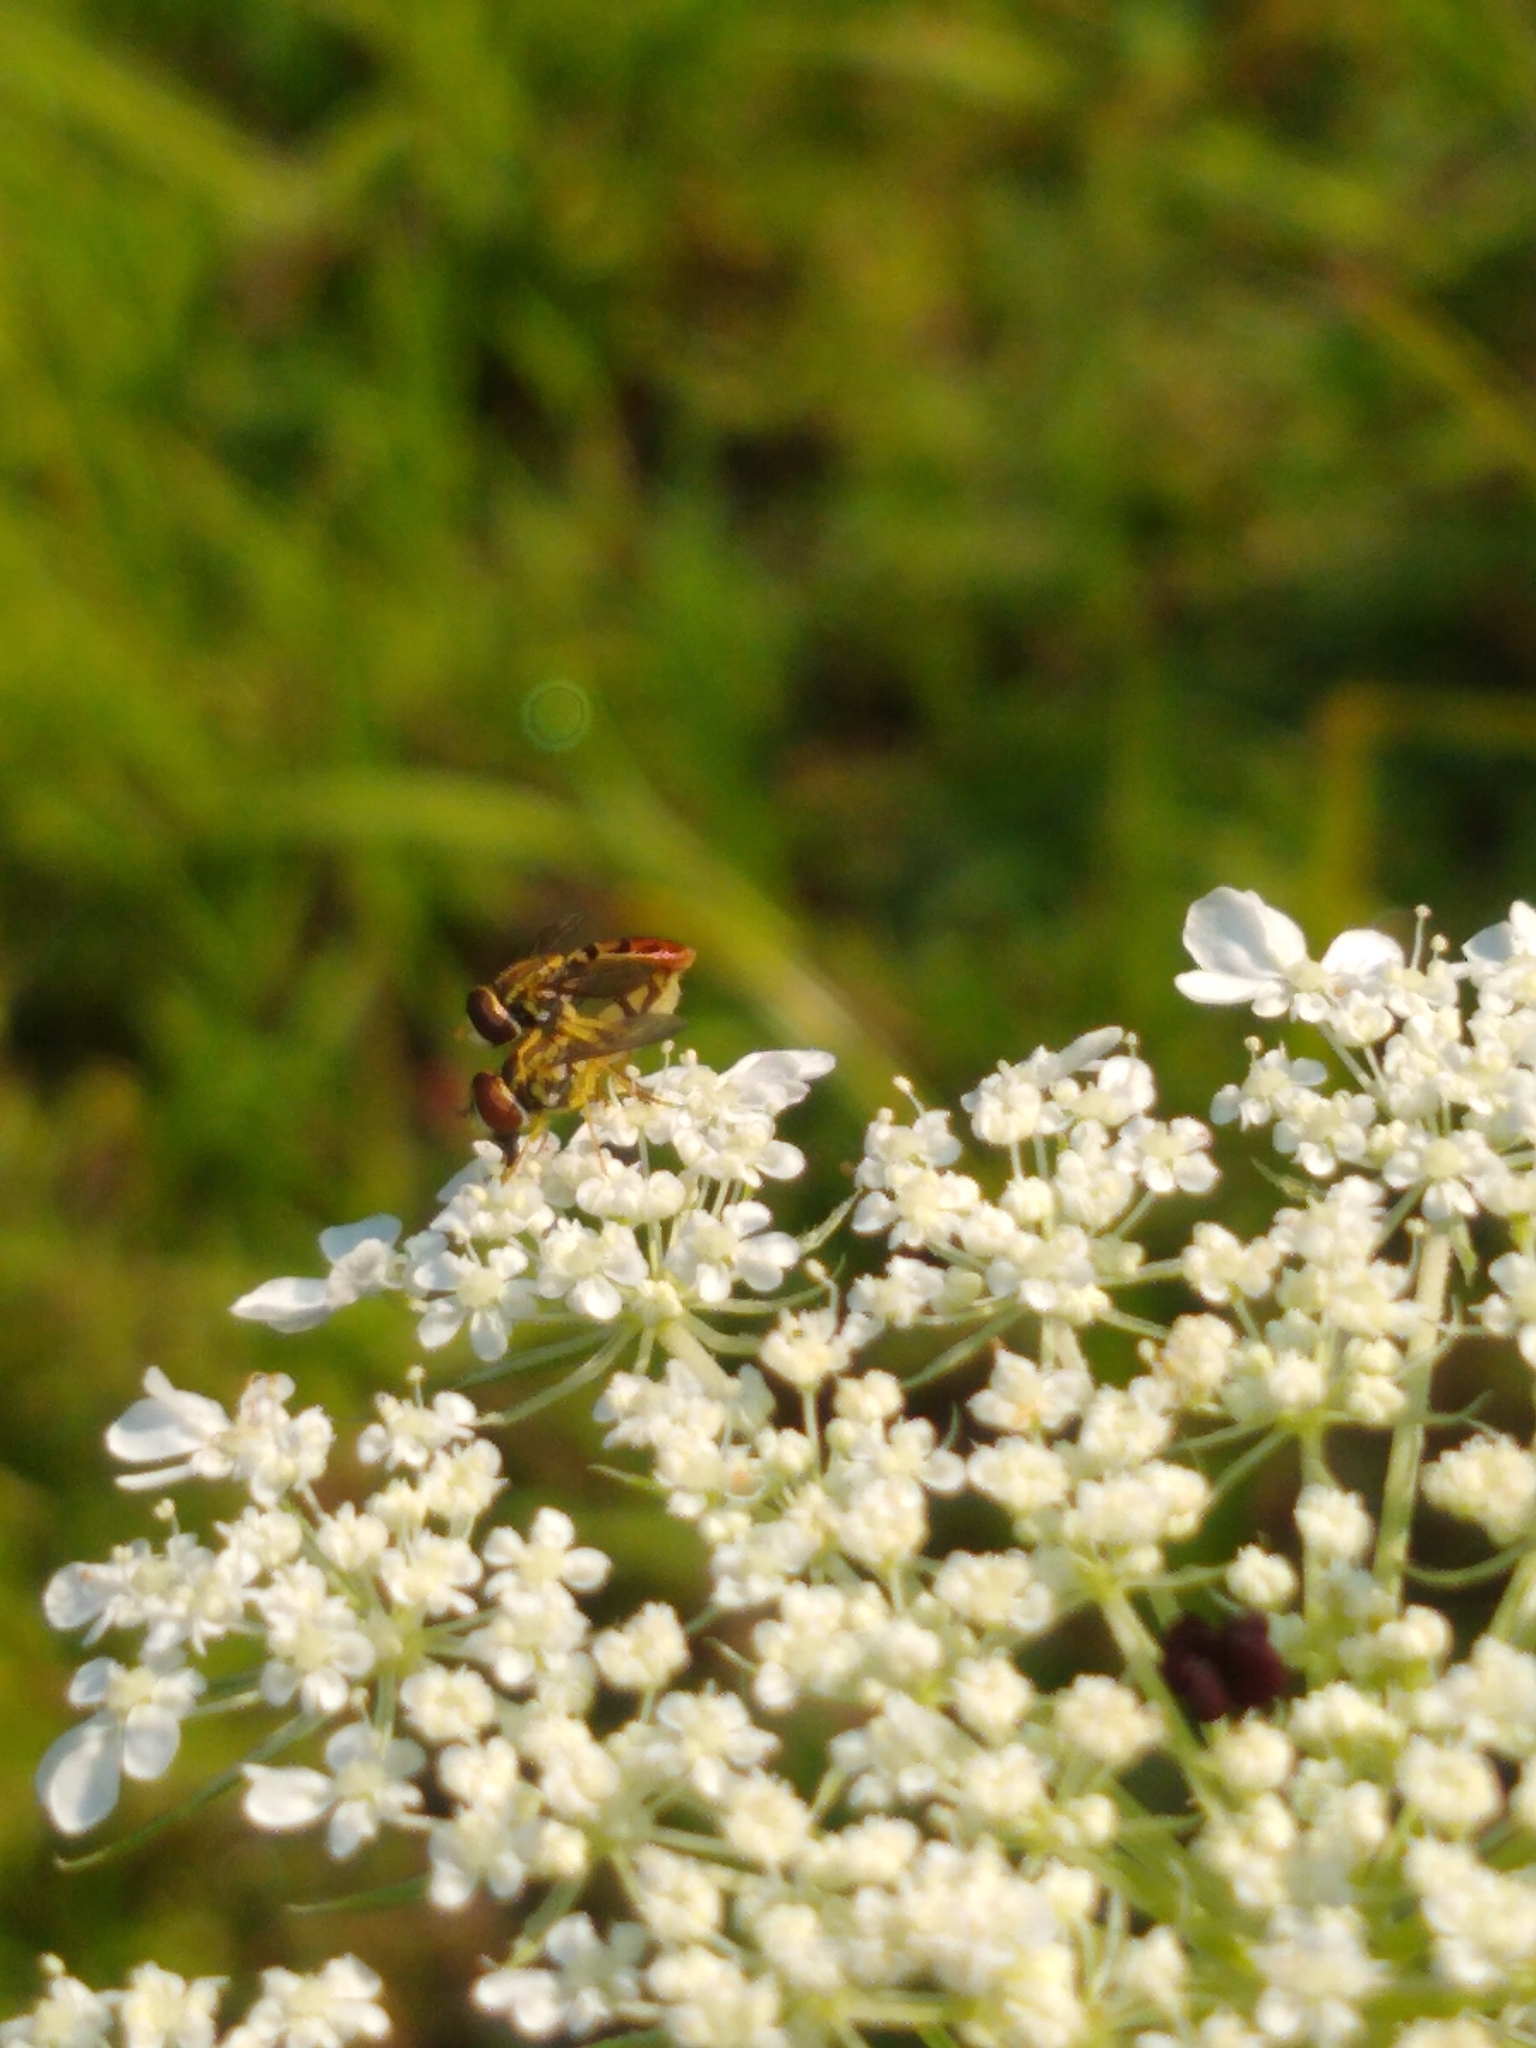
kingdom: Animalia
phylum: Arthropoda
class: Insecta
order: Diptera
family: Syrphidae
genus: Toxomerus
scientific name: Toxomerus marginatus
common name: Syrphid fly
